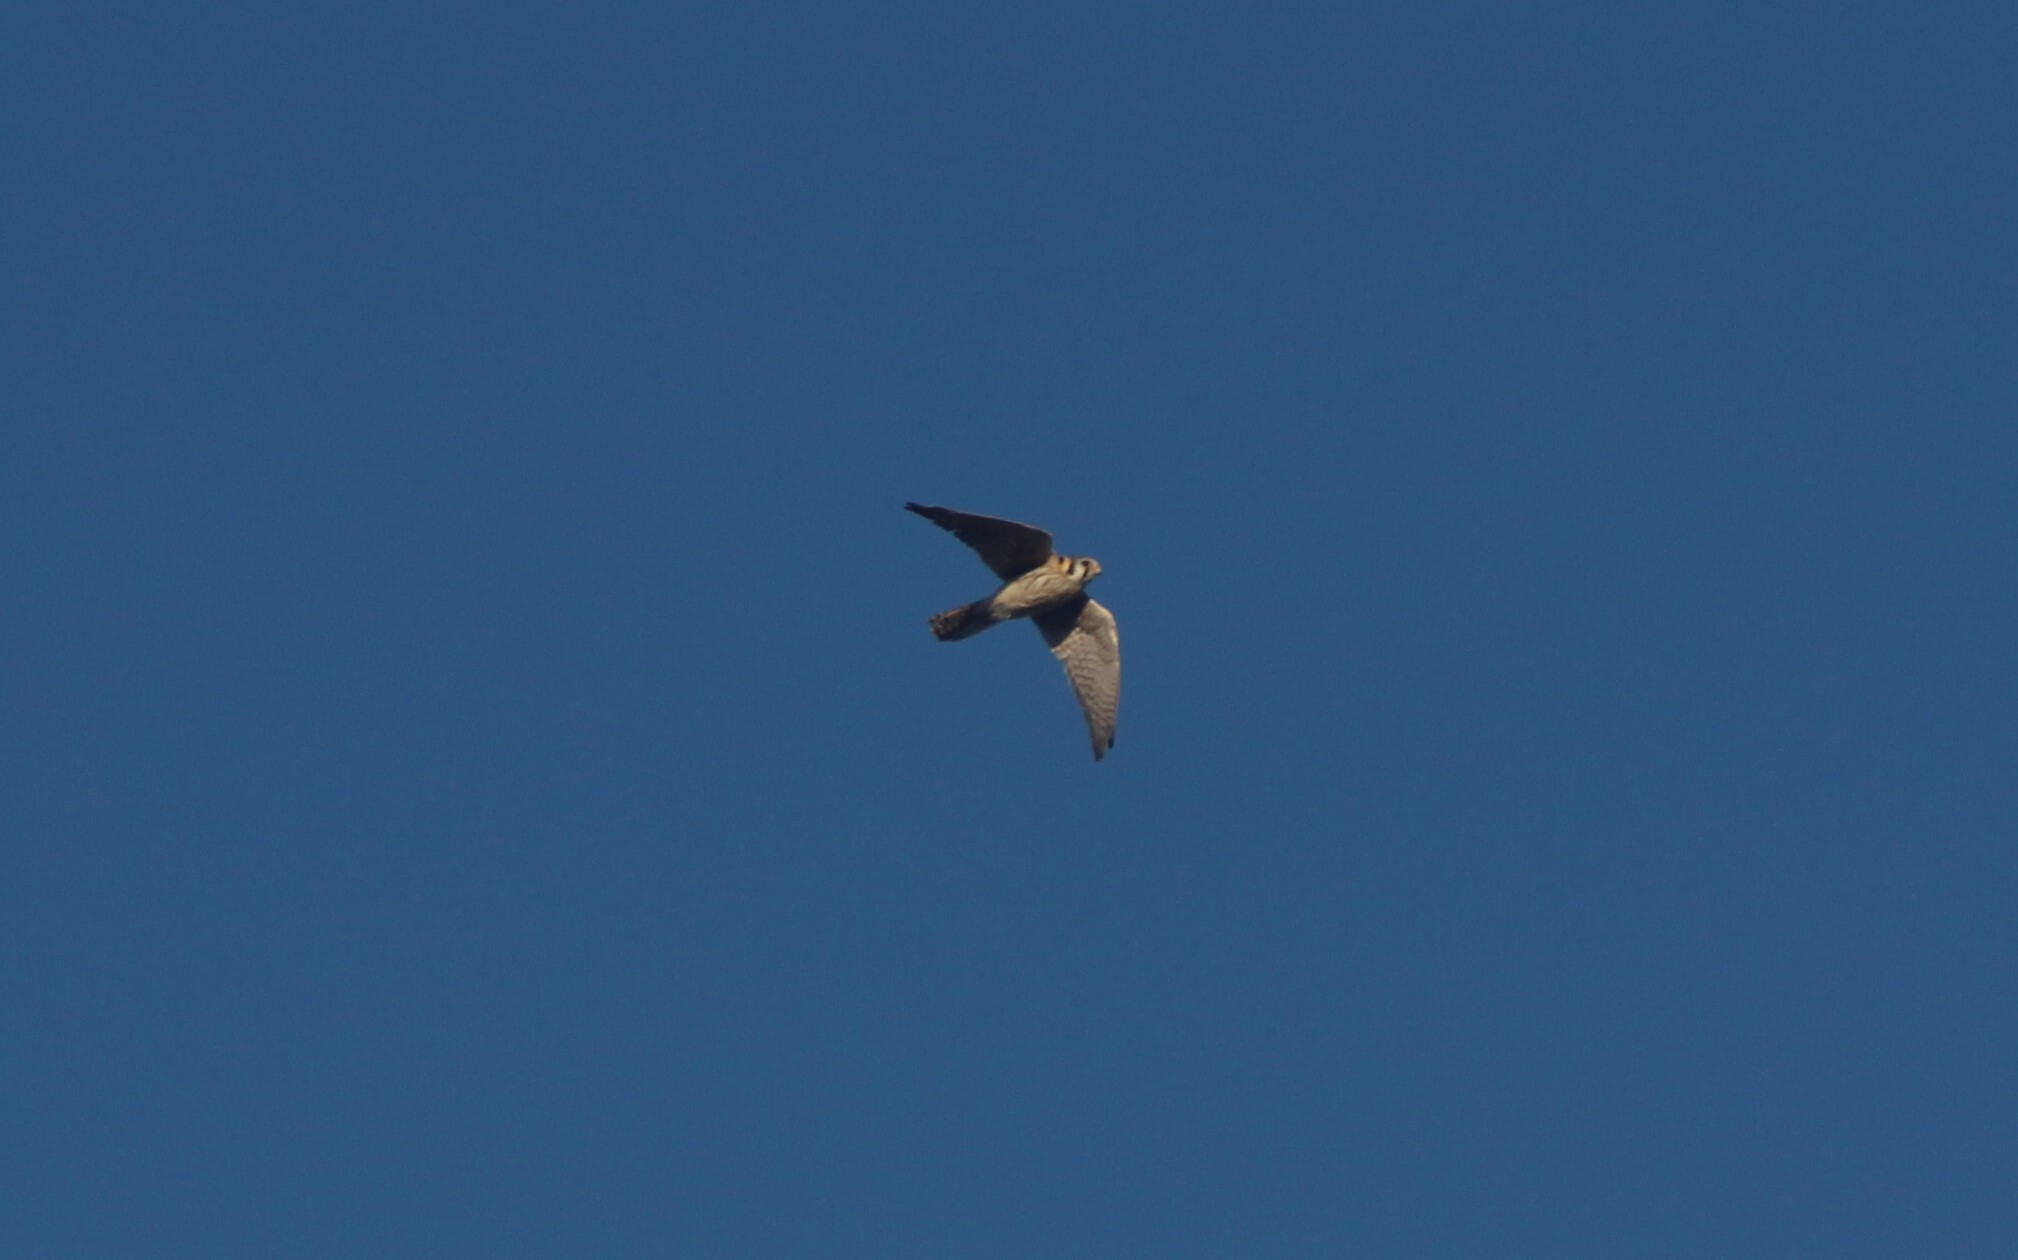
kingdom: Animalia
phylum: Chordata
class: Aves
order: Falconiformes
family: Falconidae
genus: Falco
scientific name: Falco sparverius
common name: American kestrel
